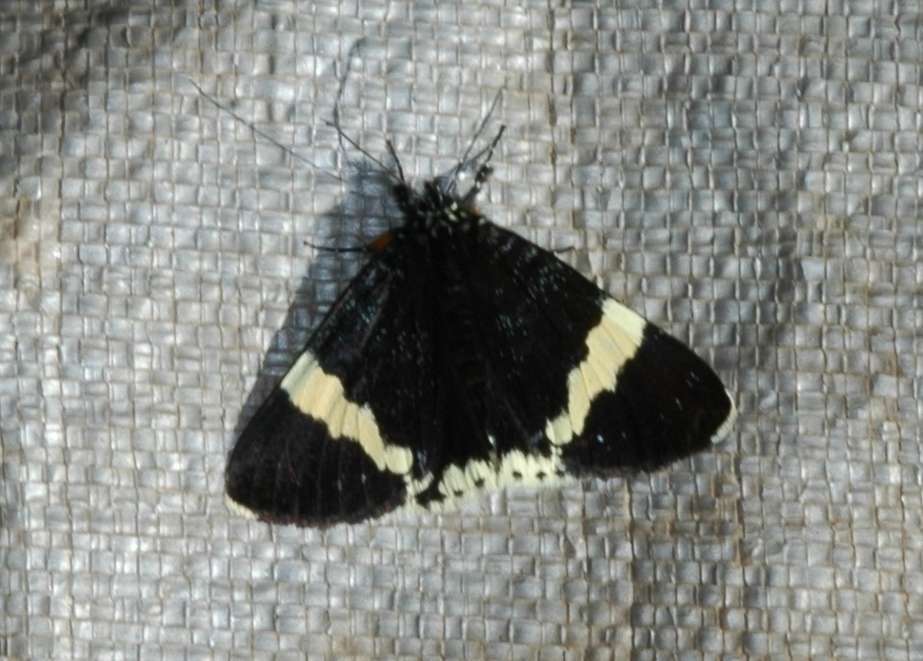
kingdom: Animalia
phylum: Arthropoda
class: Insecta
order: Lepidoptera
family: Noctuidae
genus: Eutrichopidia
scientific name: Eutrichopidia latinus
